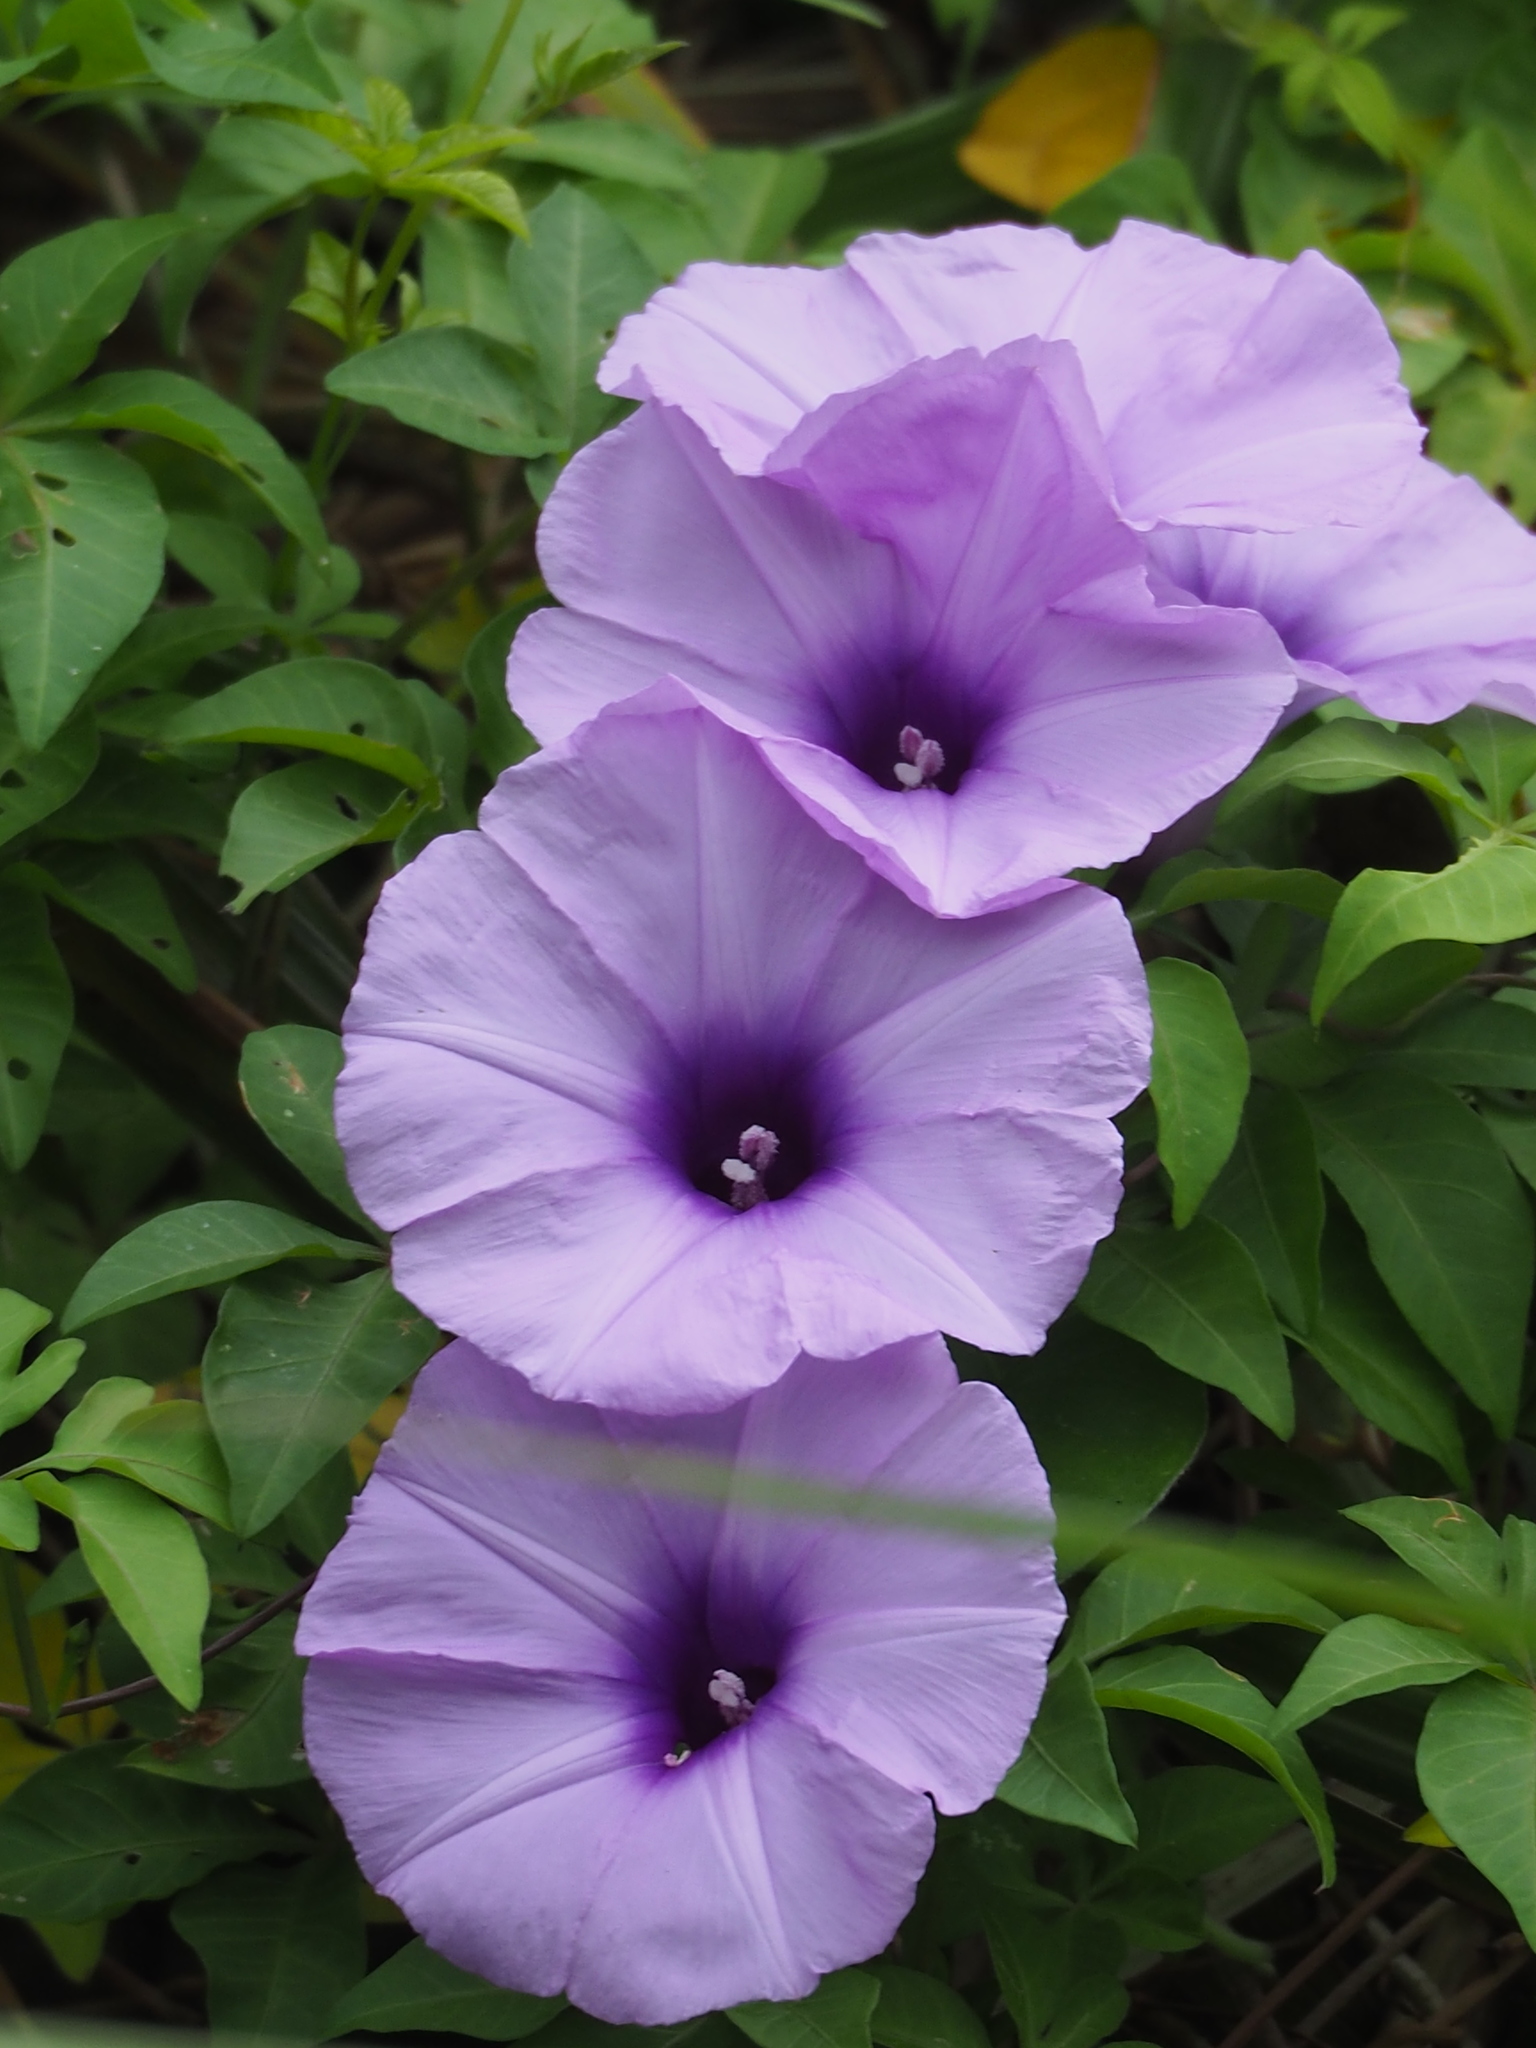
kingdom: Plantae
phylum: Tracheophyta
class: Magnoliopsida
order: Solanales
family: Convolvulaceae
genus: Ipomoea
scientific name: Ipomoea cairica
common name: Mile a minute vine
